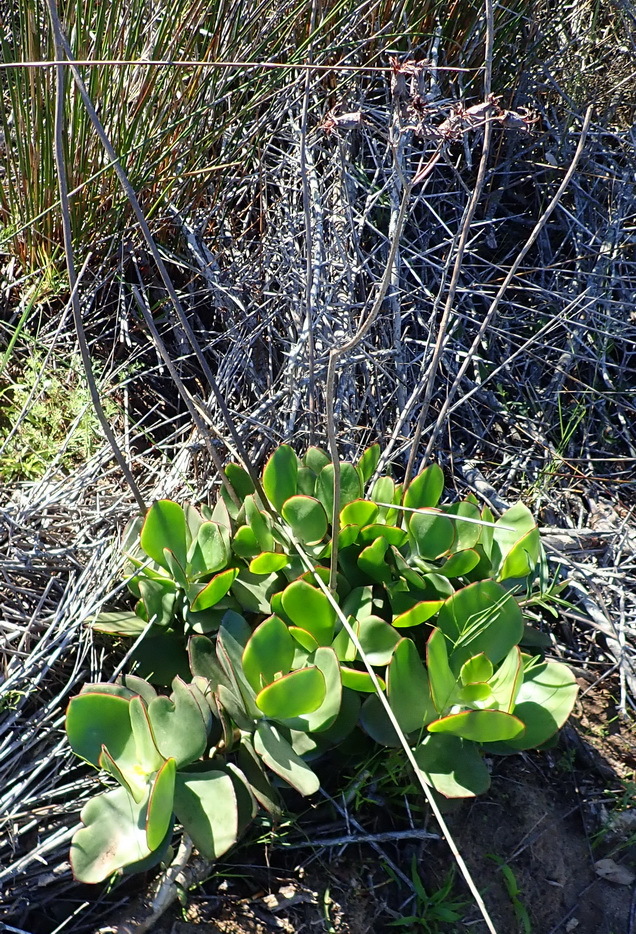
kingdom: Plantae
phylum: Tracheophyta
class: Magnoliopsida
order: Saxifragales
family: Crassulaceae
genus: Cotyledon
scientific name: Cotyledon orbiculata
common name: Pig's ear
